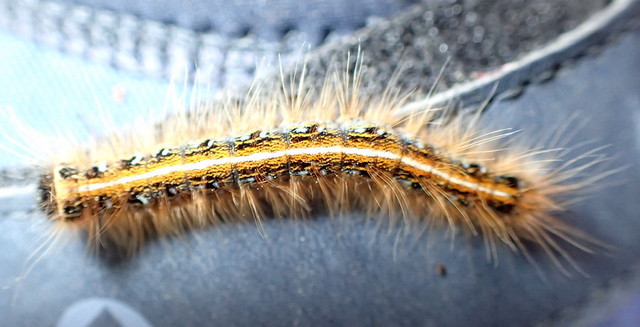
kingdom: Animalia
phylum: Arthropoda
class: Insecta
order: Lepidoptera
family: Lasiocampidae
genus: Malacosoma
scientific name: Malacosoma americana
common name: Eastern tent caterpillar moth
